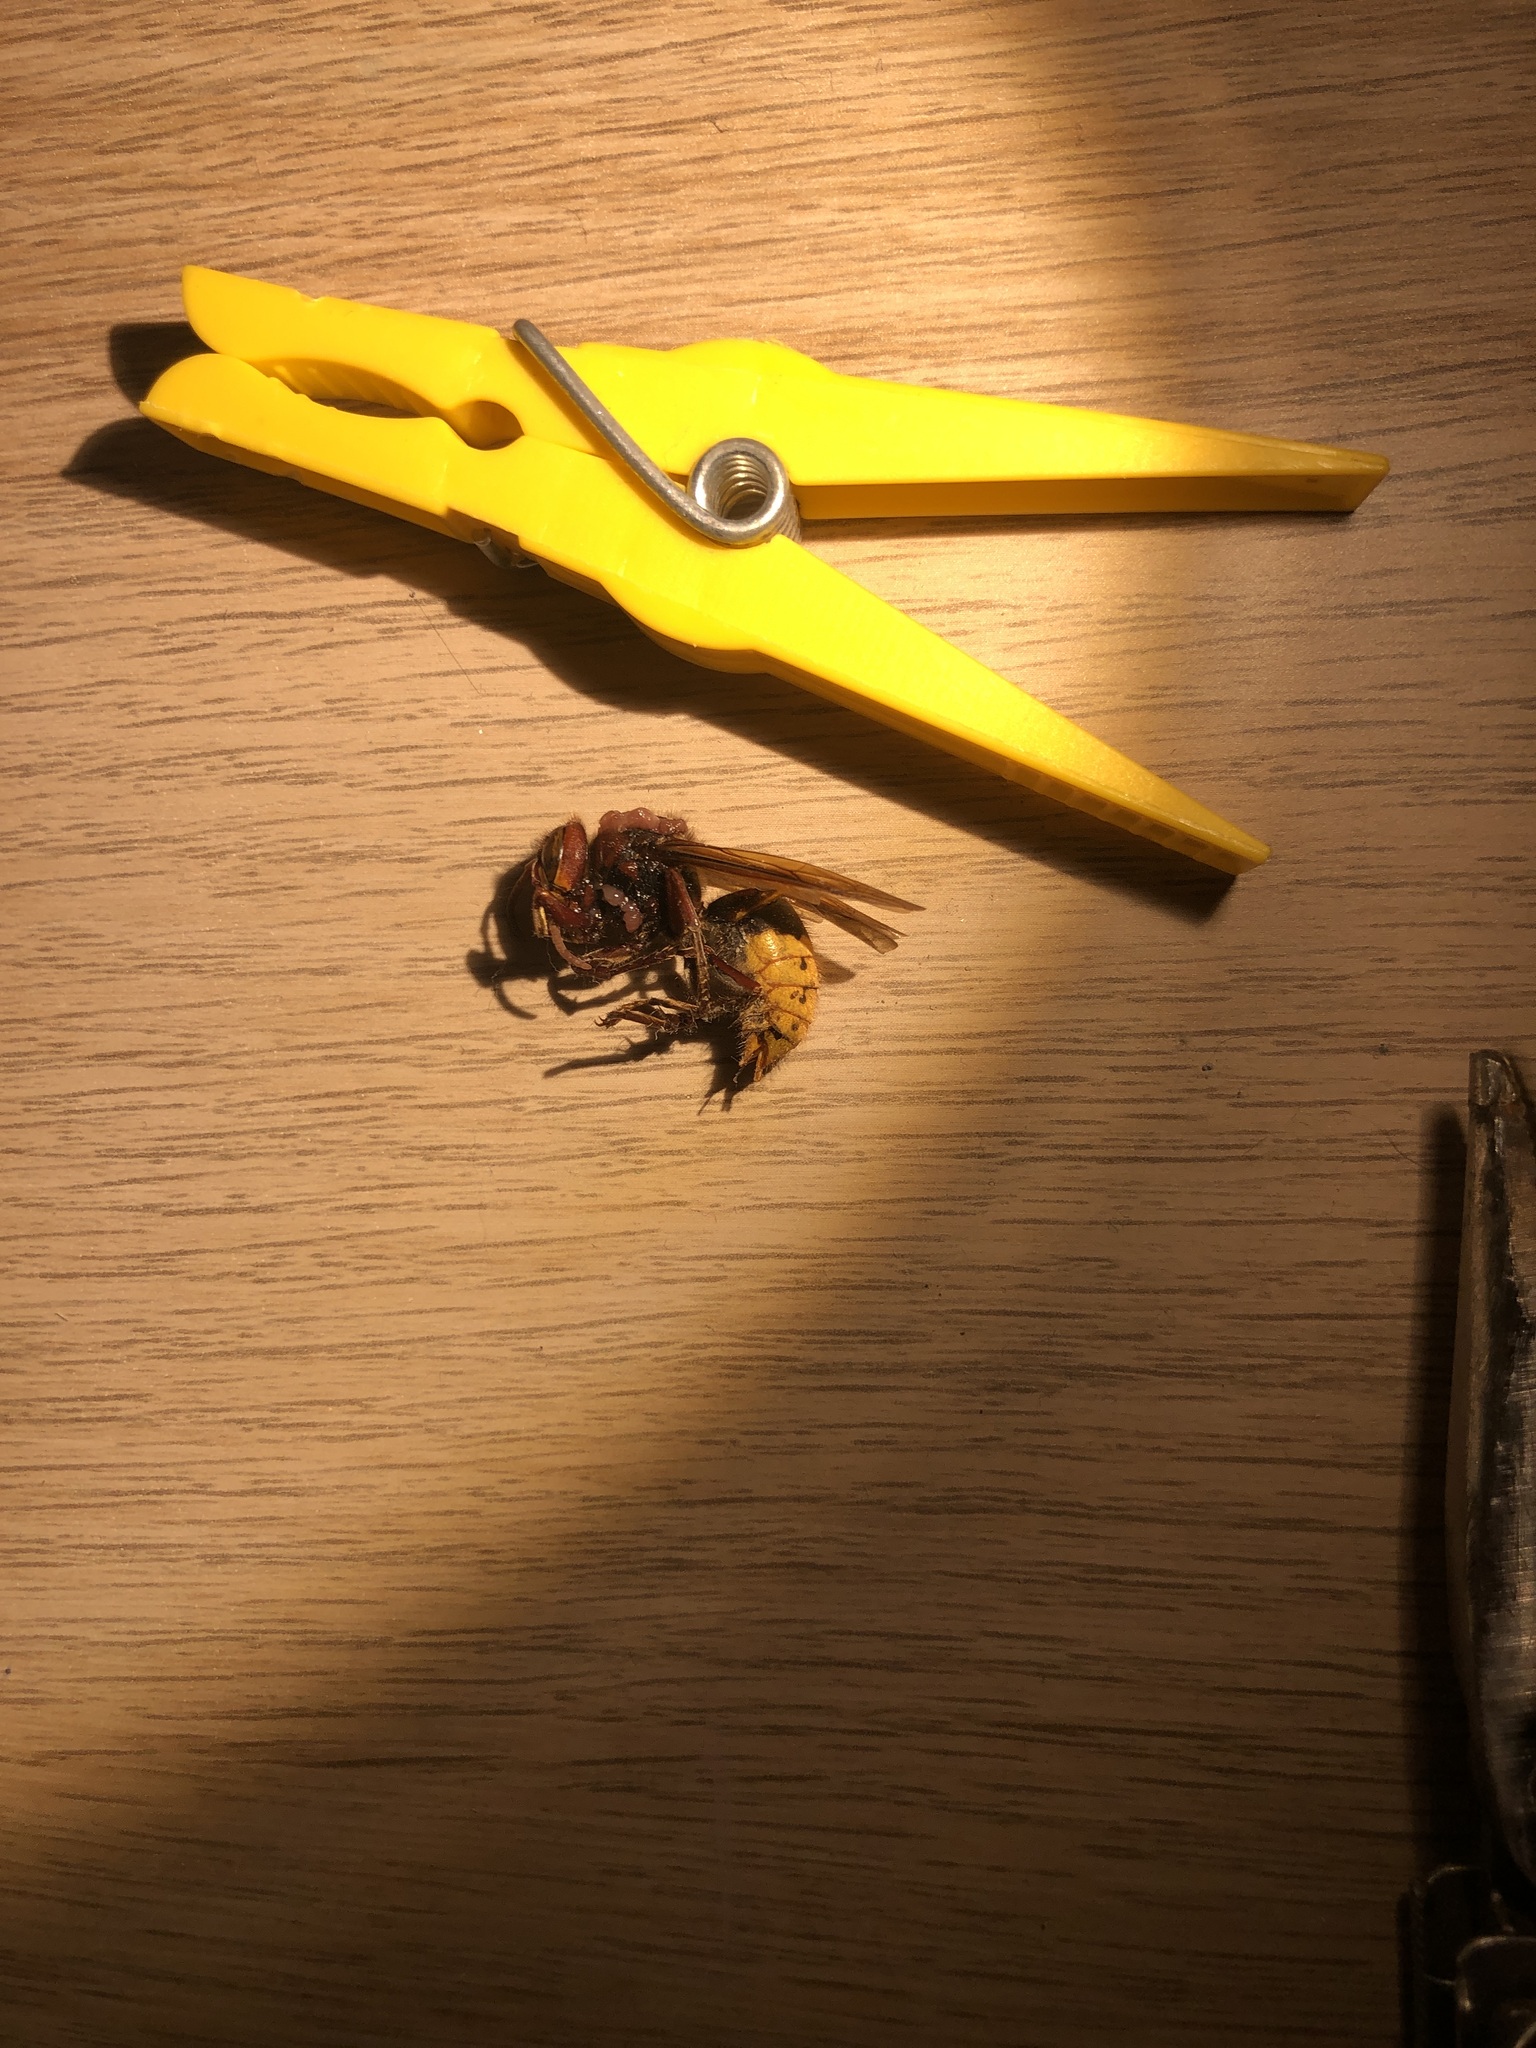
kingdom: Animalia
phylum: Arthropoda
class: Insecta
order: Hymenoptera
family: Vespidae
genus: Vespa
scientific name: Vespa crabro
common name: Hornet
